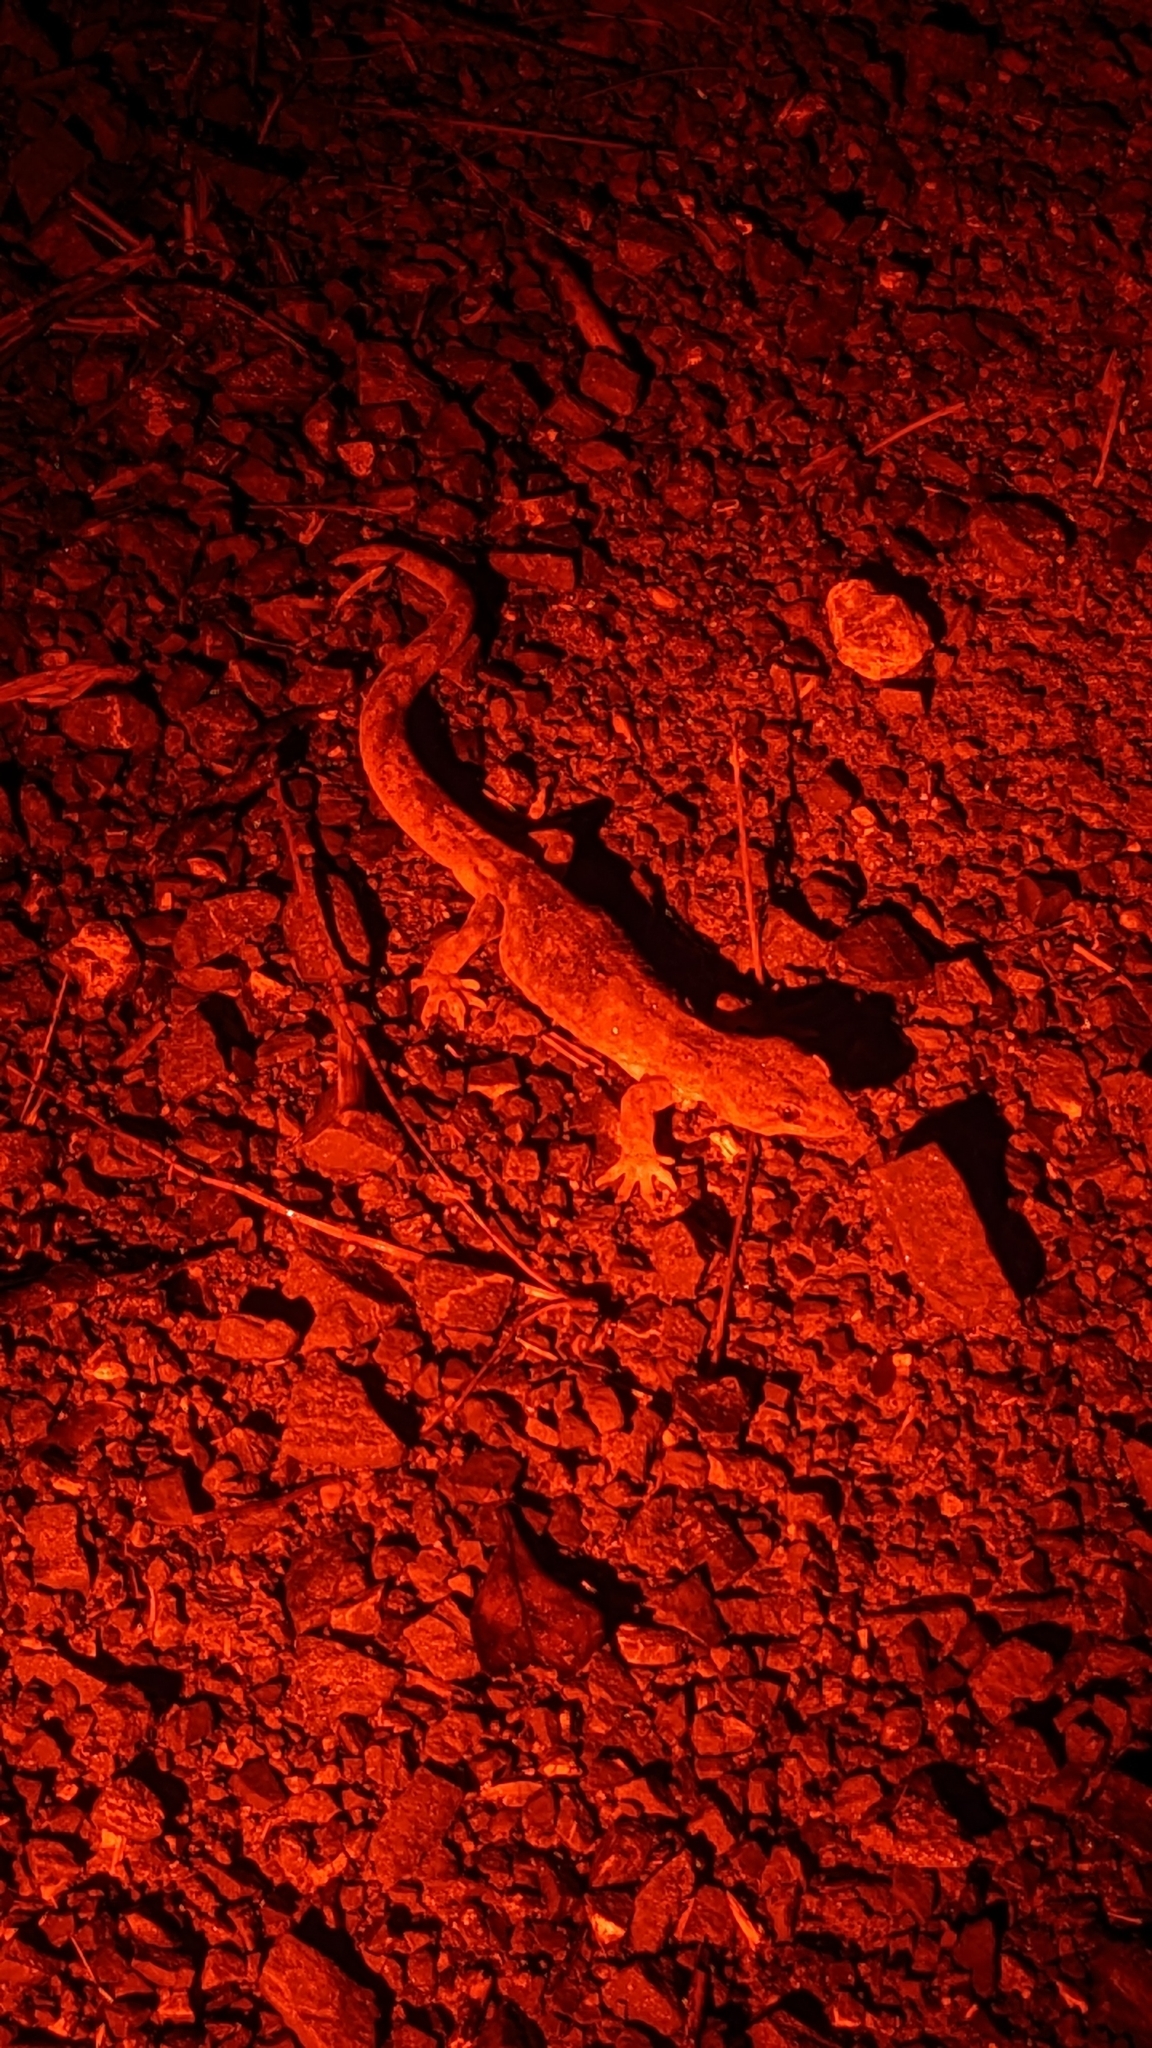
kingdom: Animalia
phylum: Chordata
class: Squamata
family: Diplodactylidae
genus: Woodworthia
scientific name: Woodworthia maculata
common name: Raukawa gecko
